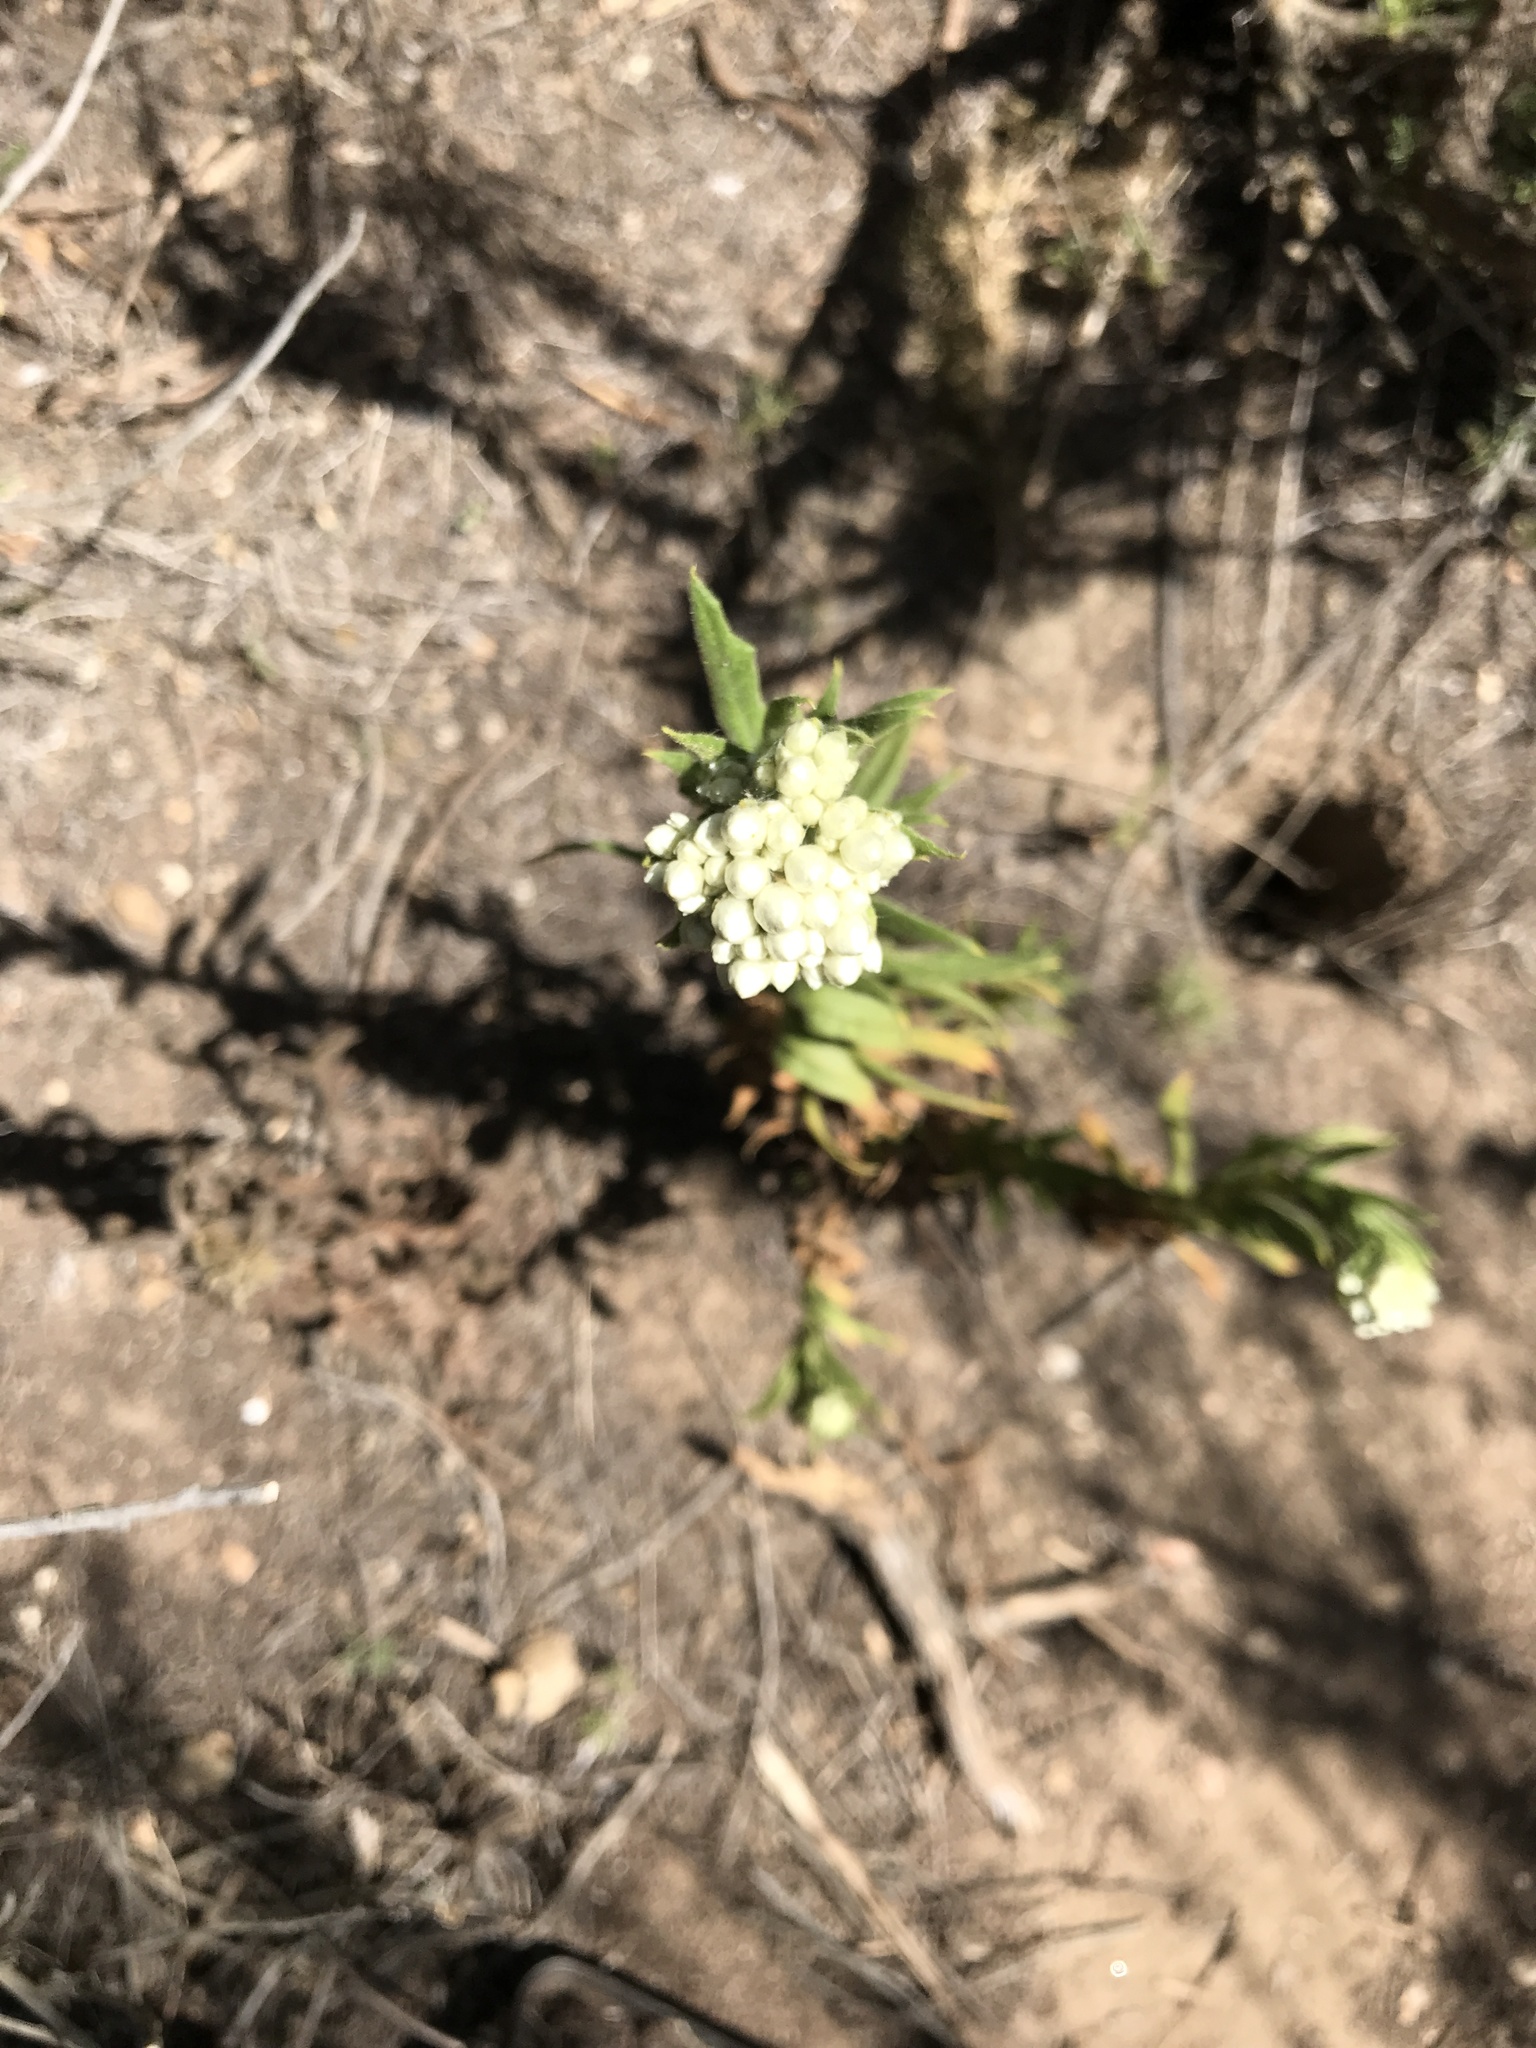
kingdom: Plantae
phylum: Tracheophyta
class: Magnoliopsida
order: Asterales
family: Asteraceae
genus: Pseudognaphalium
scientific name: Pseudognaphalium californicum
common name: California rabbit-tobacco
